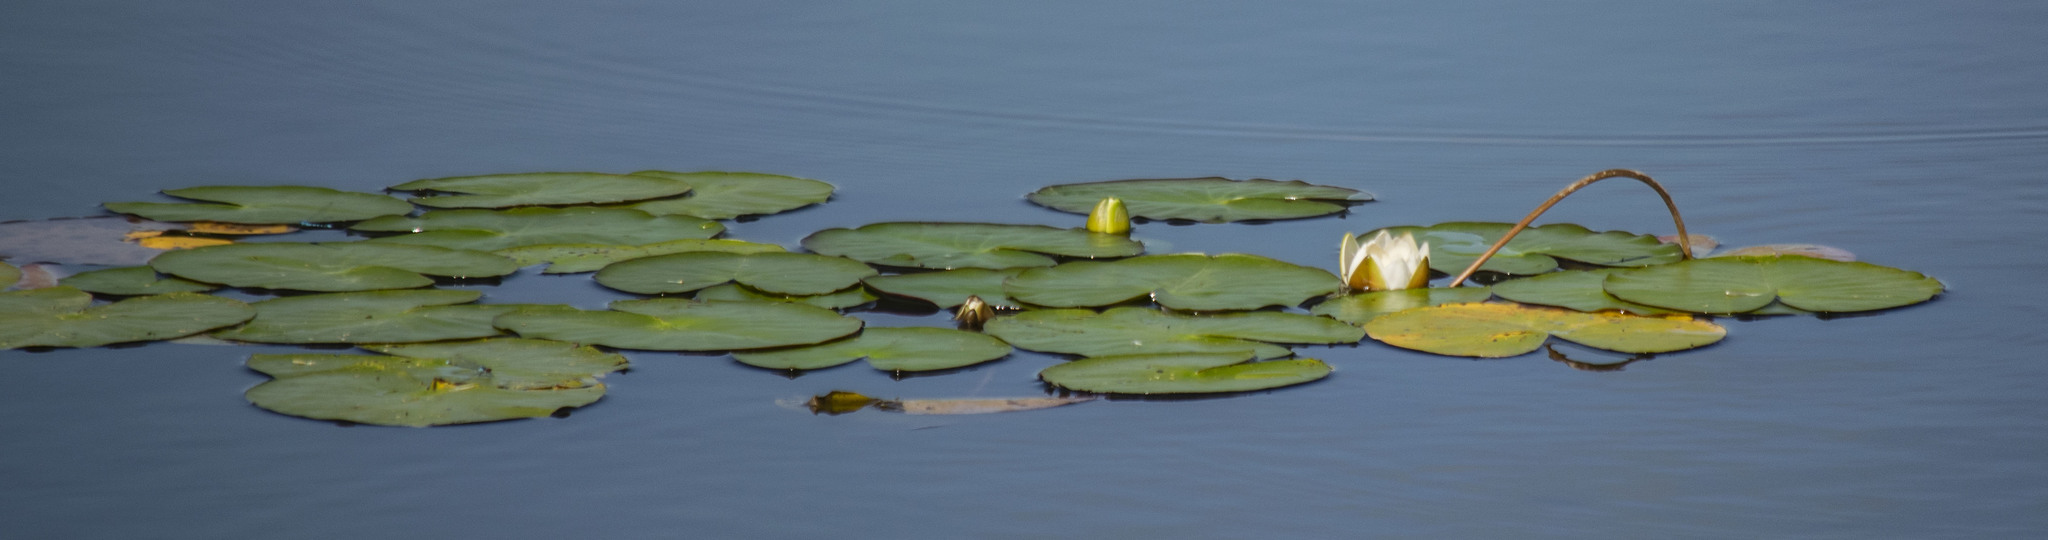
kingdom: Plantae
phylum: Tracheophyta
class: Magnoliopsida
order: Nymphaeales
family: Nymphaeaceae
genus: Nymphaea
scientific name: Nymphaea candida
